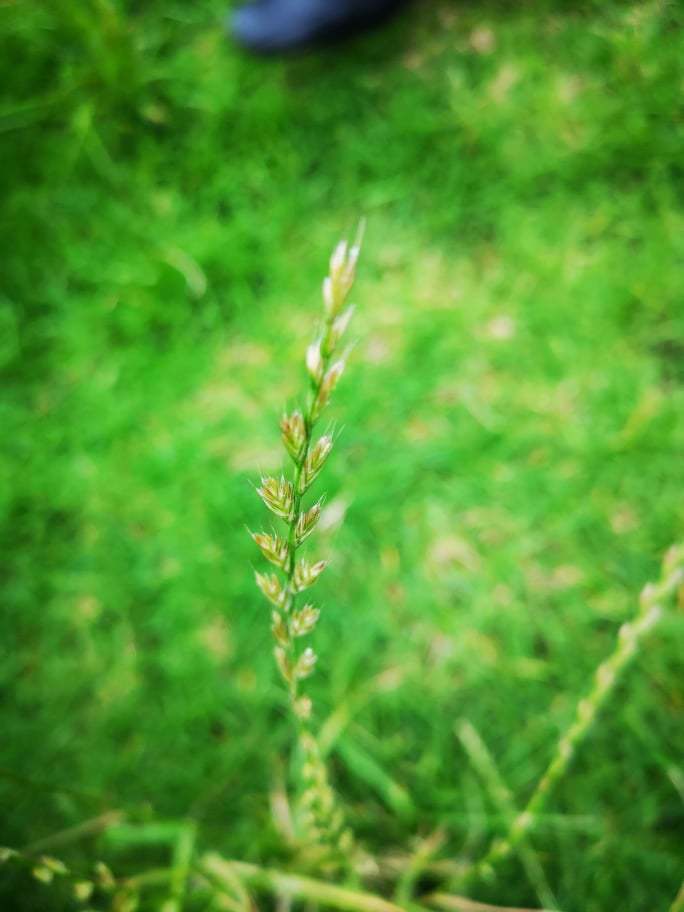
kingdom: Plantae
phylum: Tracheophyta
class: Liliopsida
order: Poales
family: Poaceae
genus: Lolium
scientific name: Lolium perenne
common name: Perennial ryegrass
